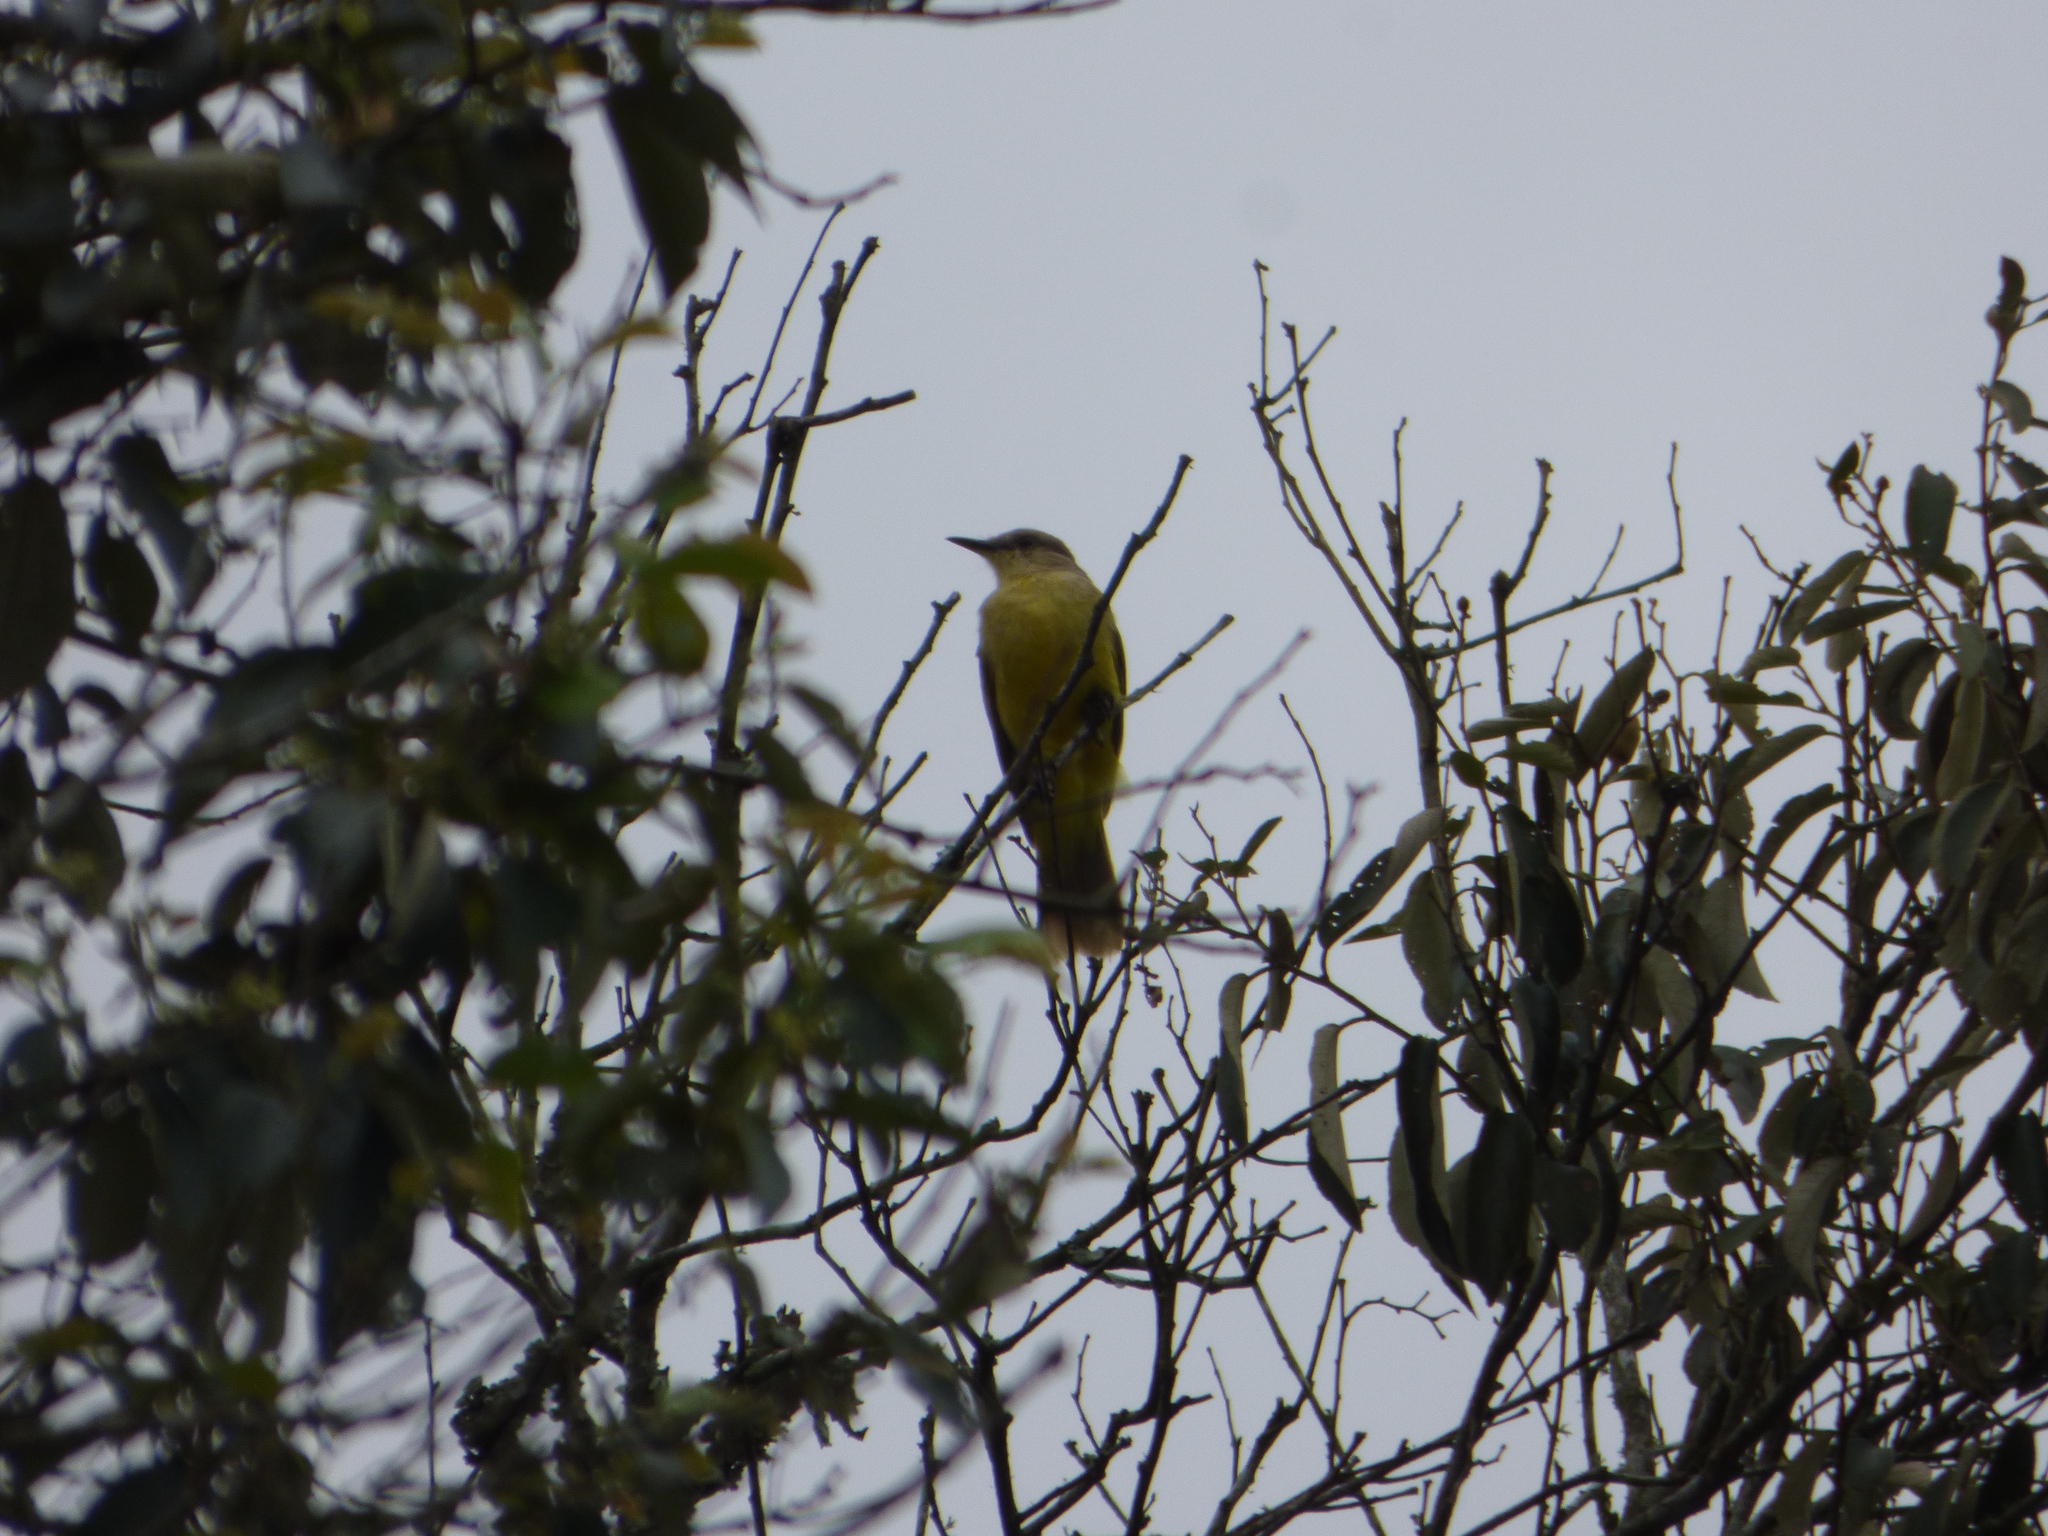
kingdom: Animalia
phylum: Chordata
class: Aves
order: Passeriformes
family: Tyrannidae
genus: Machetornis
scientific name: Machetornis rixosa
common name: Cattle tyrant
